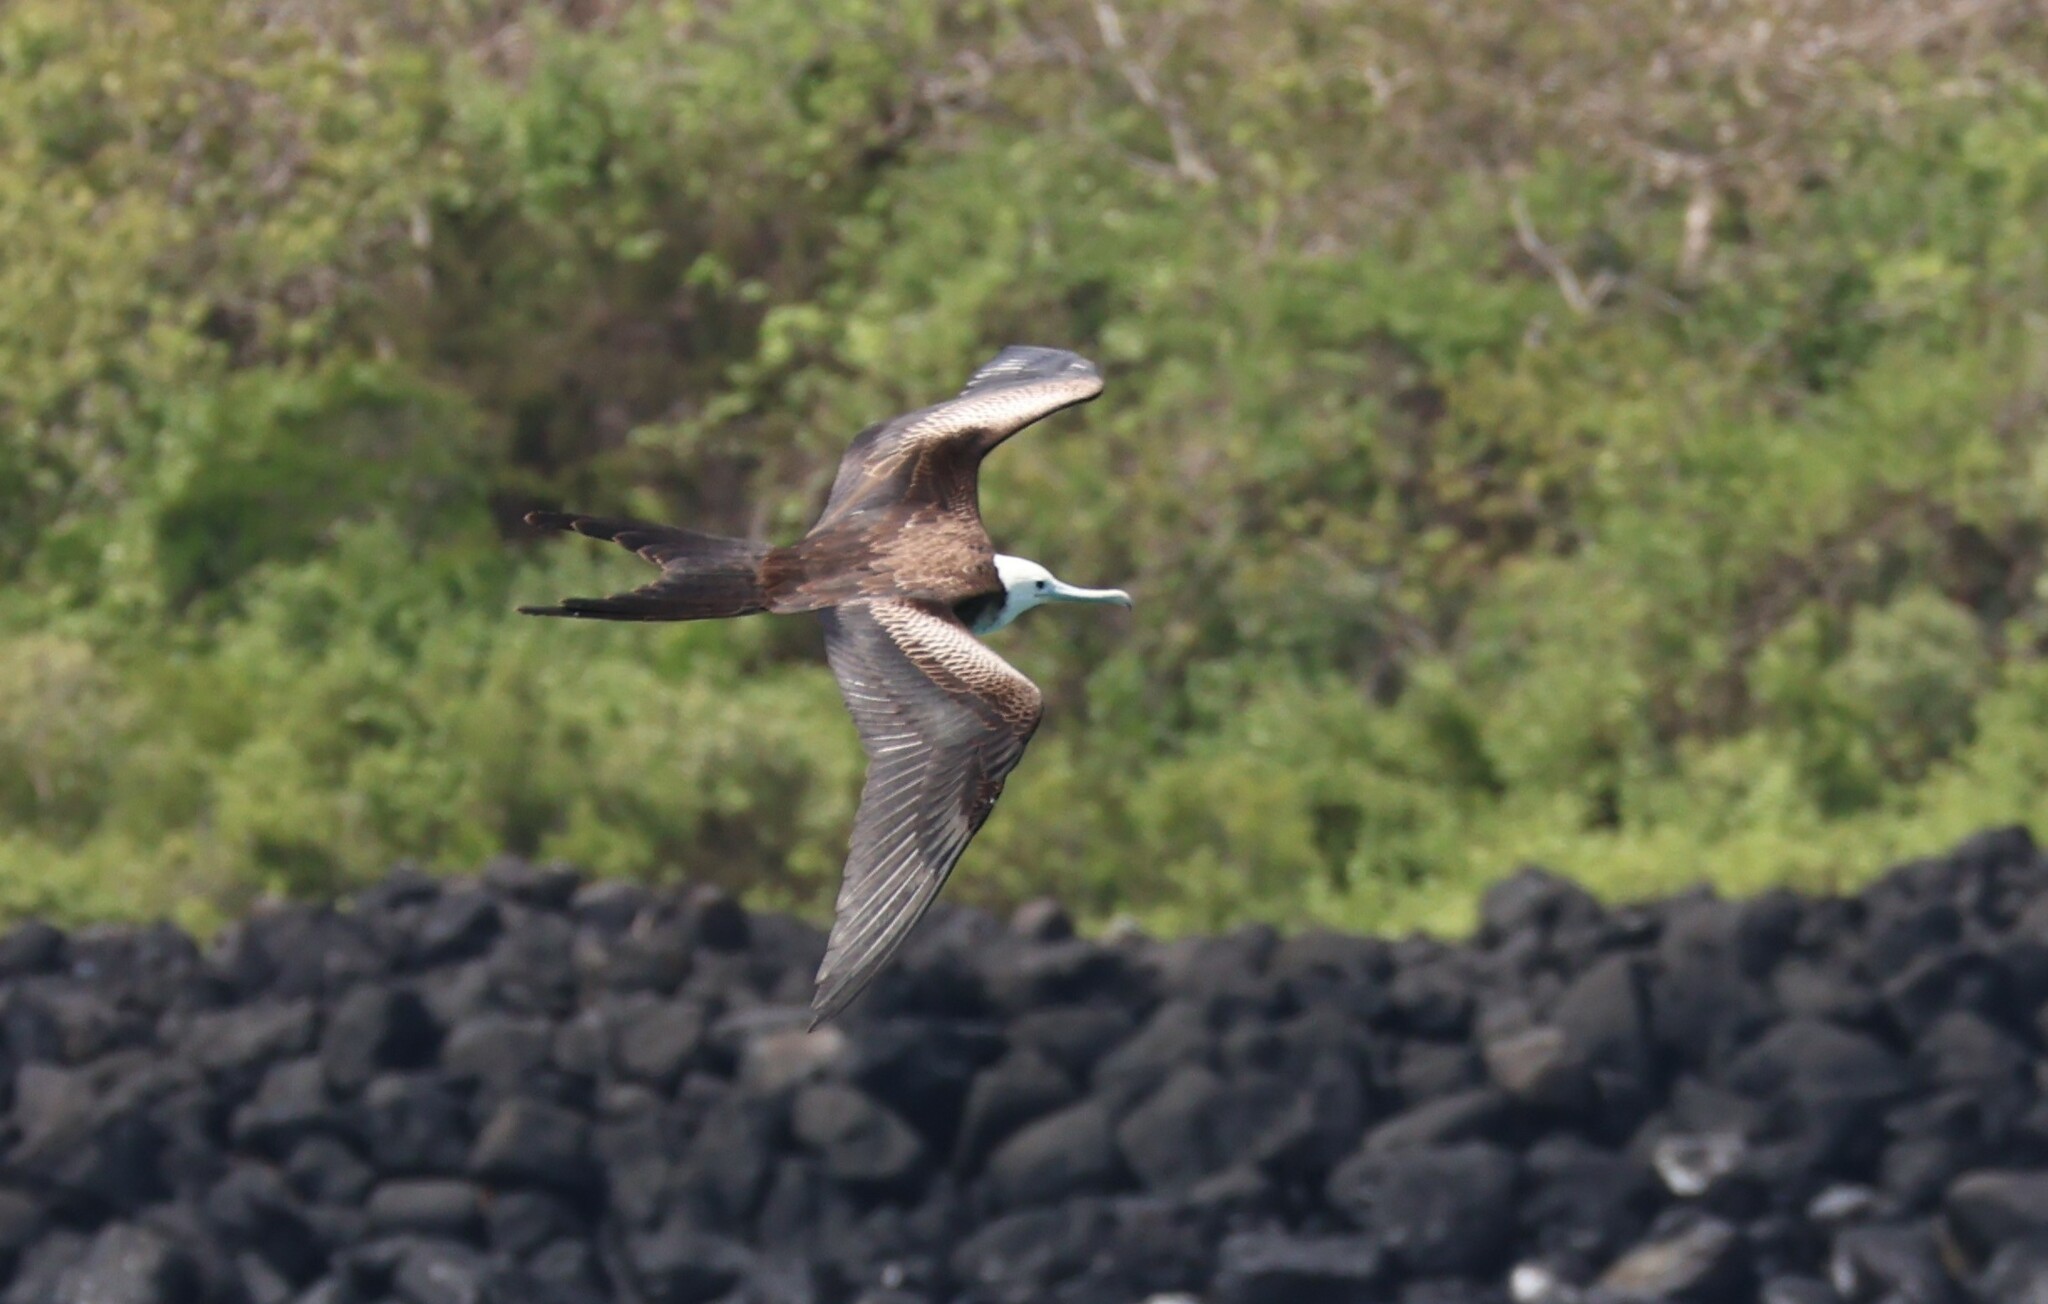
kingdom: Animalia
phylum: Chordata
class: Aves
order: Suliformes
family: Fregatidae
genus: Fregata
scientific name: Fregata magnificens
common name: Magnificent frigatebird
